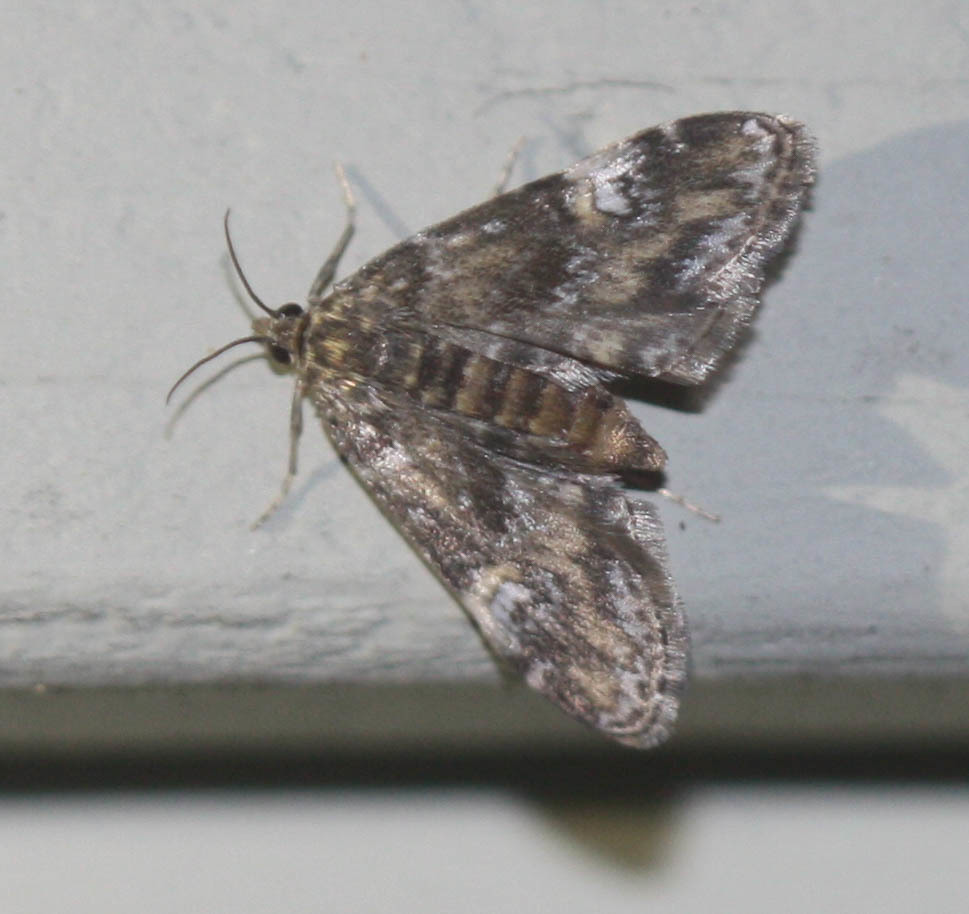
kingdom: Animalia
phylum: Arthropoda
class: Insecta
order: Lepidoptera
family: Crambidae
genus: Elophila
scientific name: Elophila obliteralis
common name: Waterlily leafcutter moth
